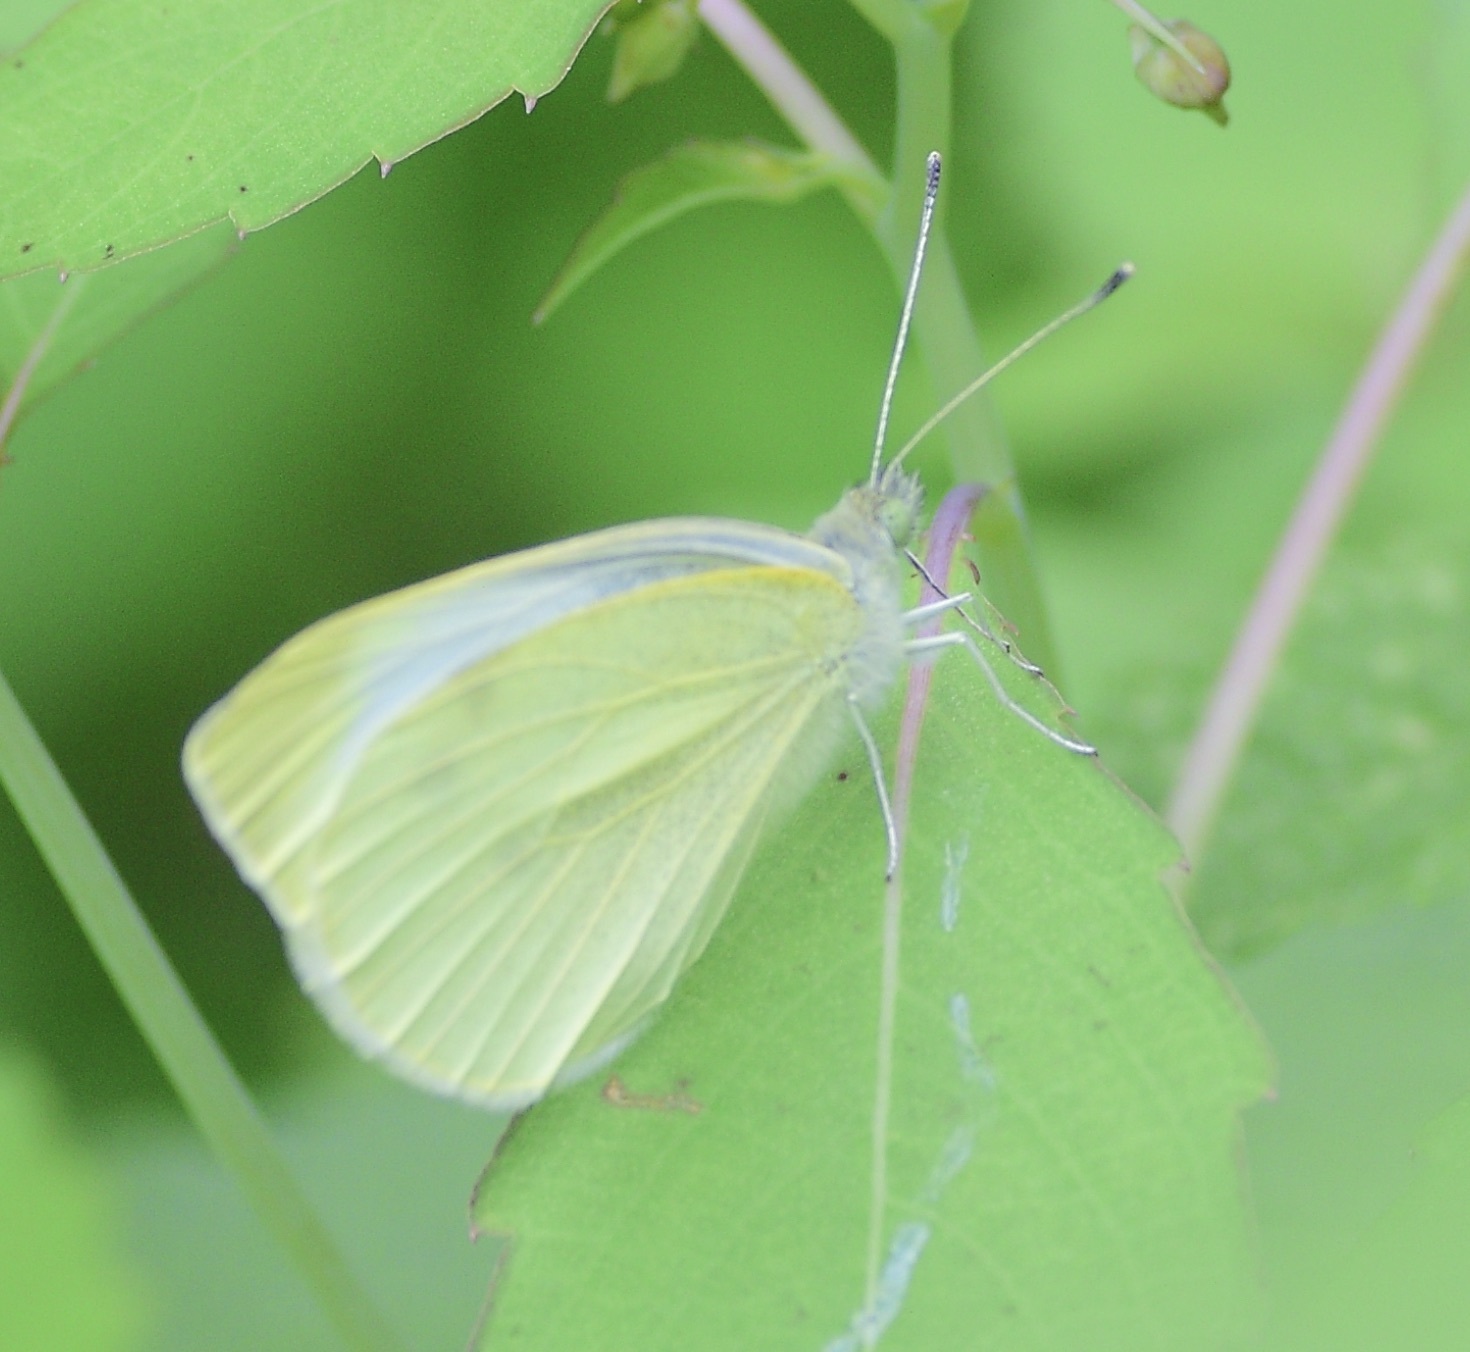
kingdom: Animalia
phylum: Arthropoda
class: Insecta
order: Lepidoptera
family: Pieridae
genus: Pieris
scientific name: Pieris rapae
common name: Small white
